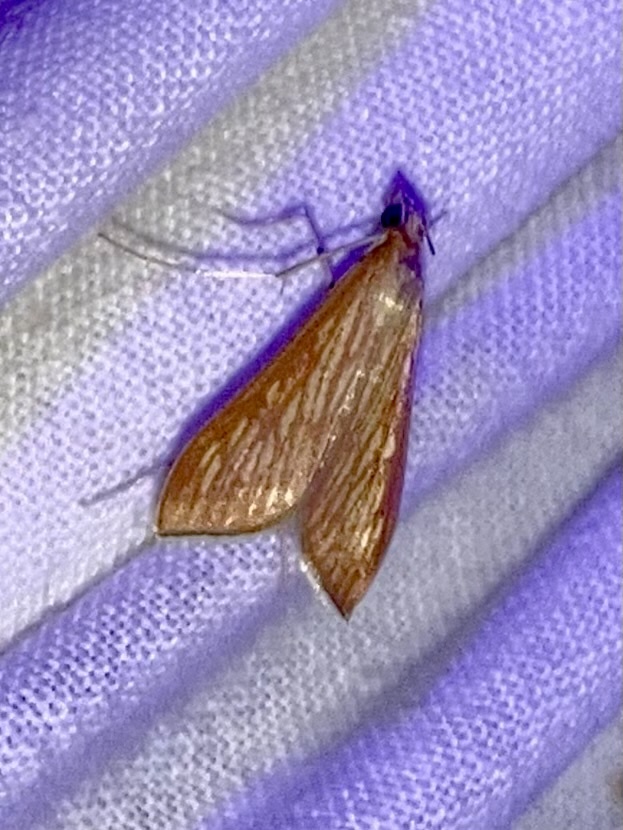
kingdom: Animalia
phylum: Arthropoda
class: Insecta
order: Lepidoptera
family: Crambidae
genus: Antigastra
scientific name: Antigastra catalaunalis
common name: Spanish dot
